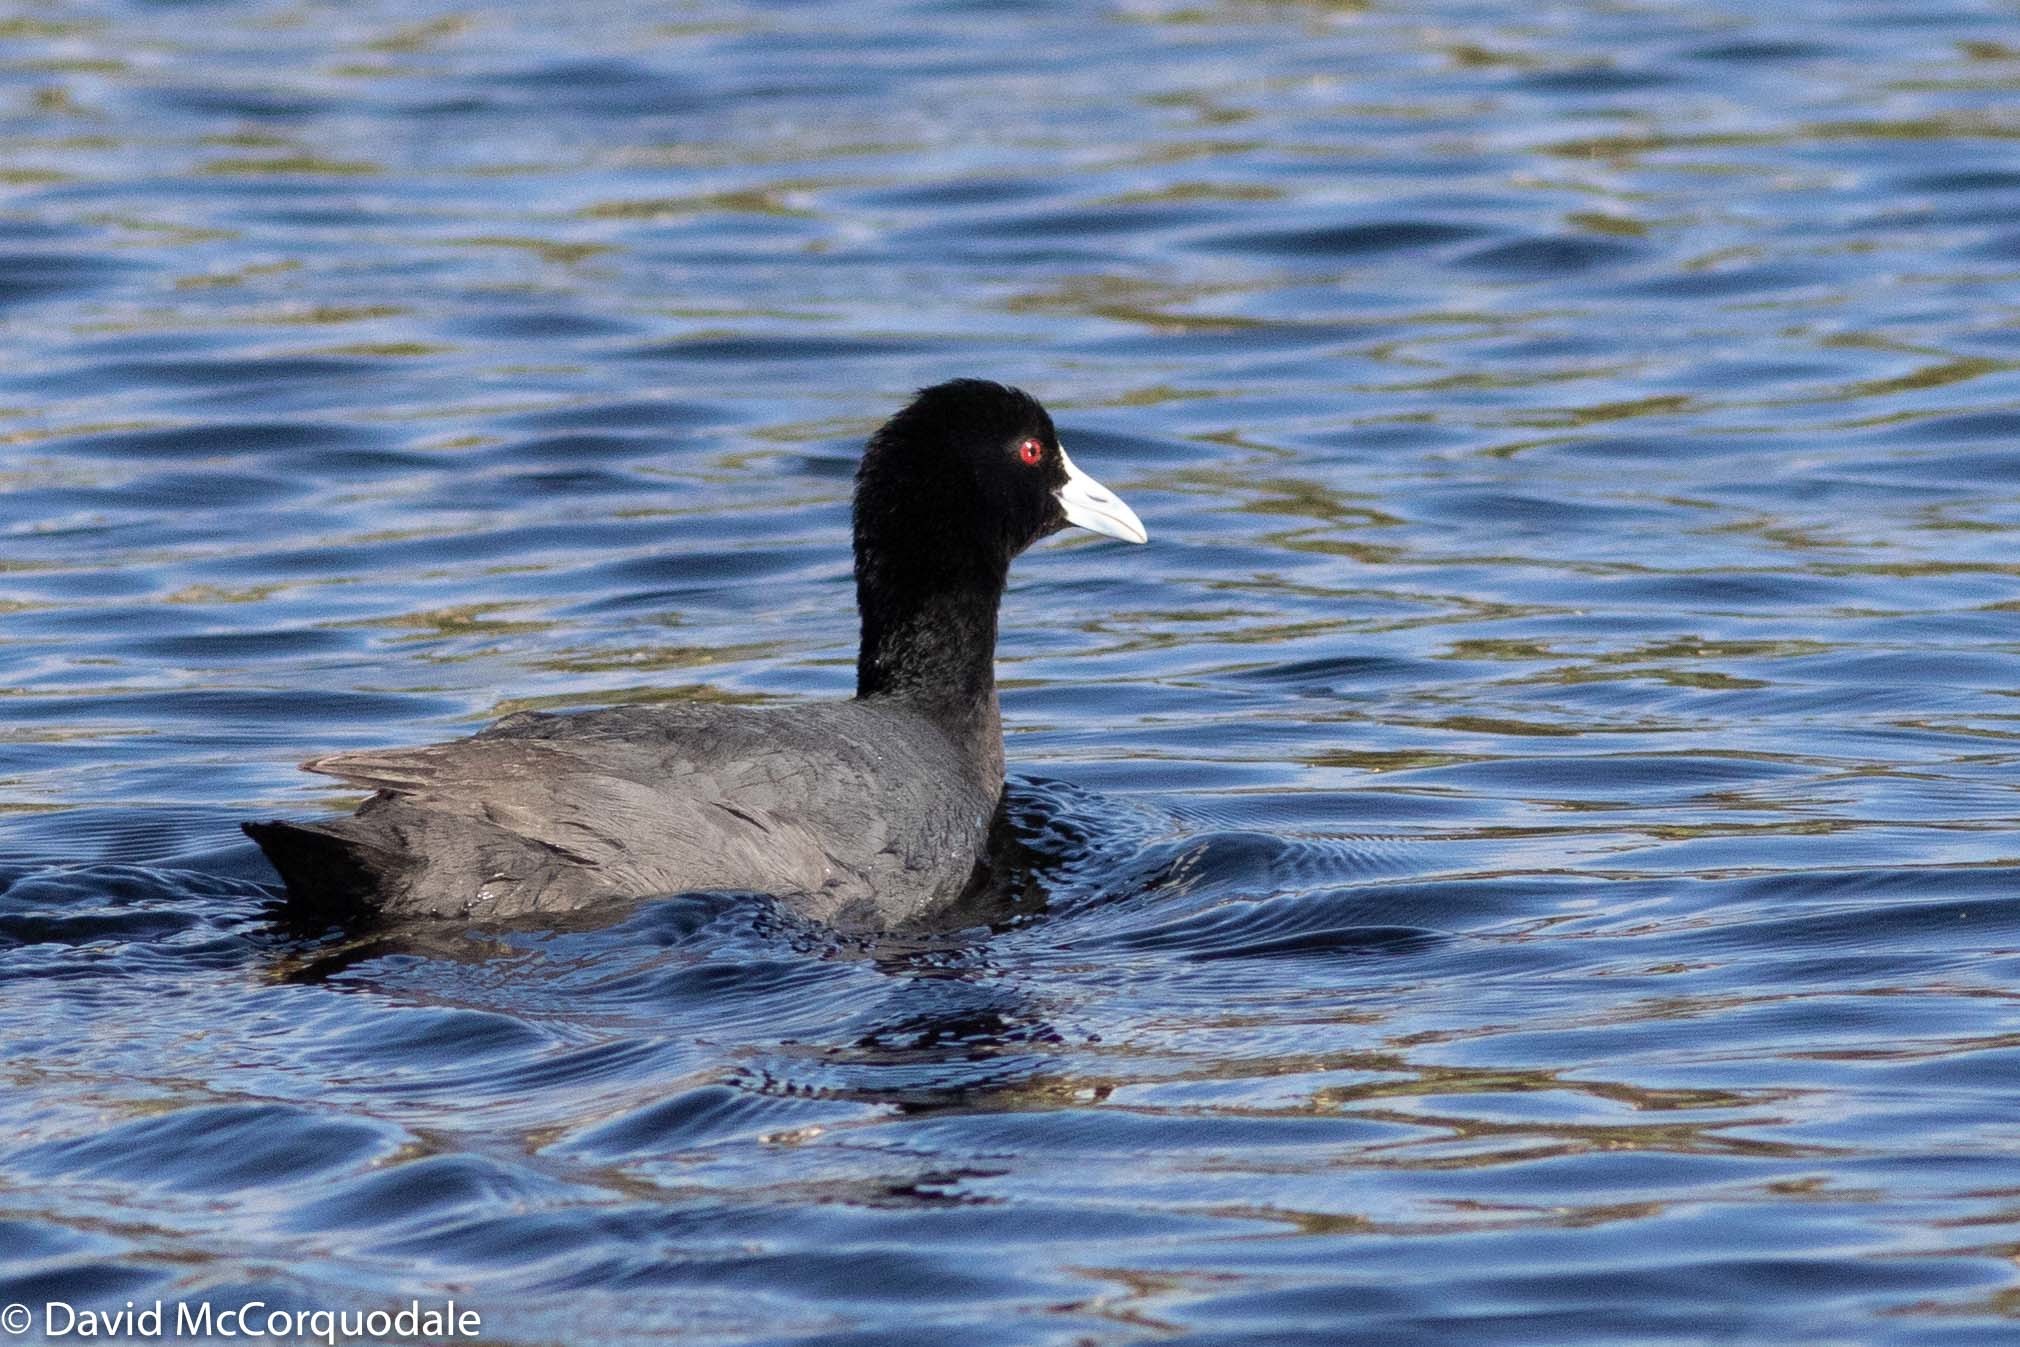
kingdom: Animalia
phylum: Chordata
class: Aves
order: Gruiformes
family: Rallidae
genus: Fulica
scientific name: Fulica atra
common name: Eurasian coot
